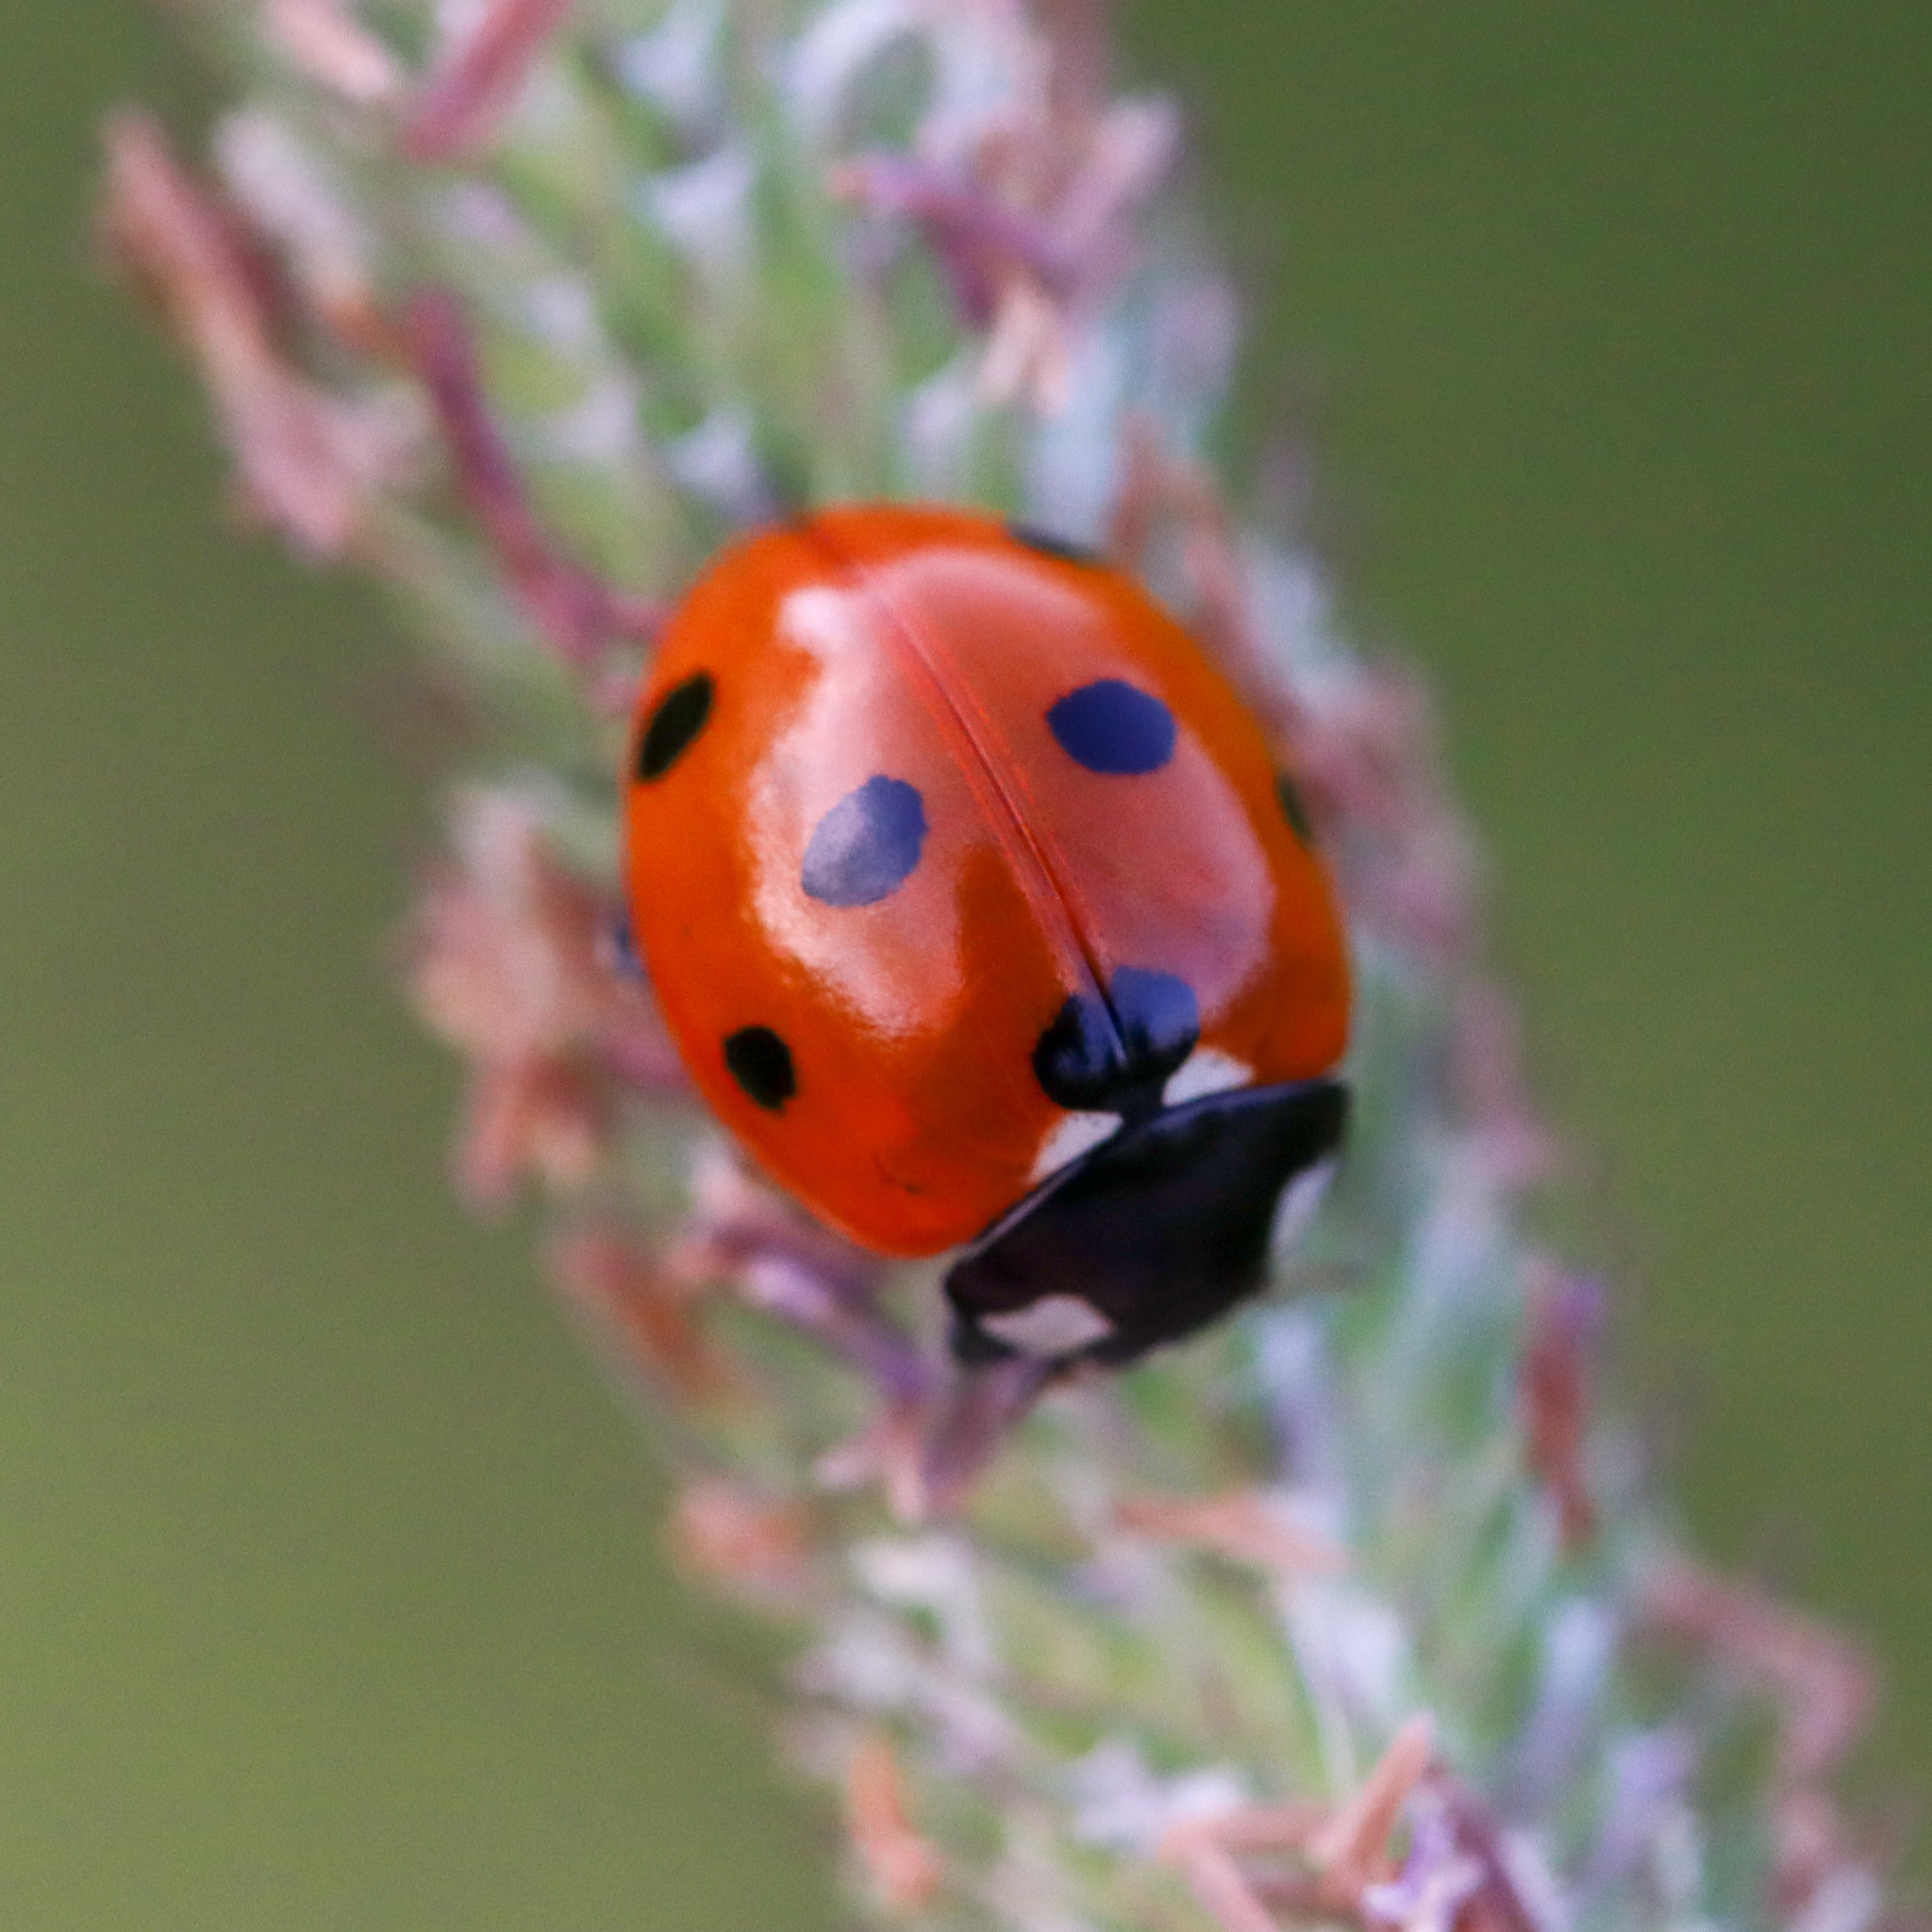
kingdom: Animalia
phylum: Arthropoda
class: Insecta
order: Coleoptera
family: Coccinellidae
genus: Coccinella
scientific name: Coccinella septempunctata
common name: Sevenspotted lady beetle
